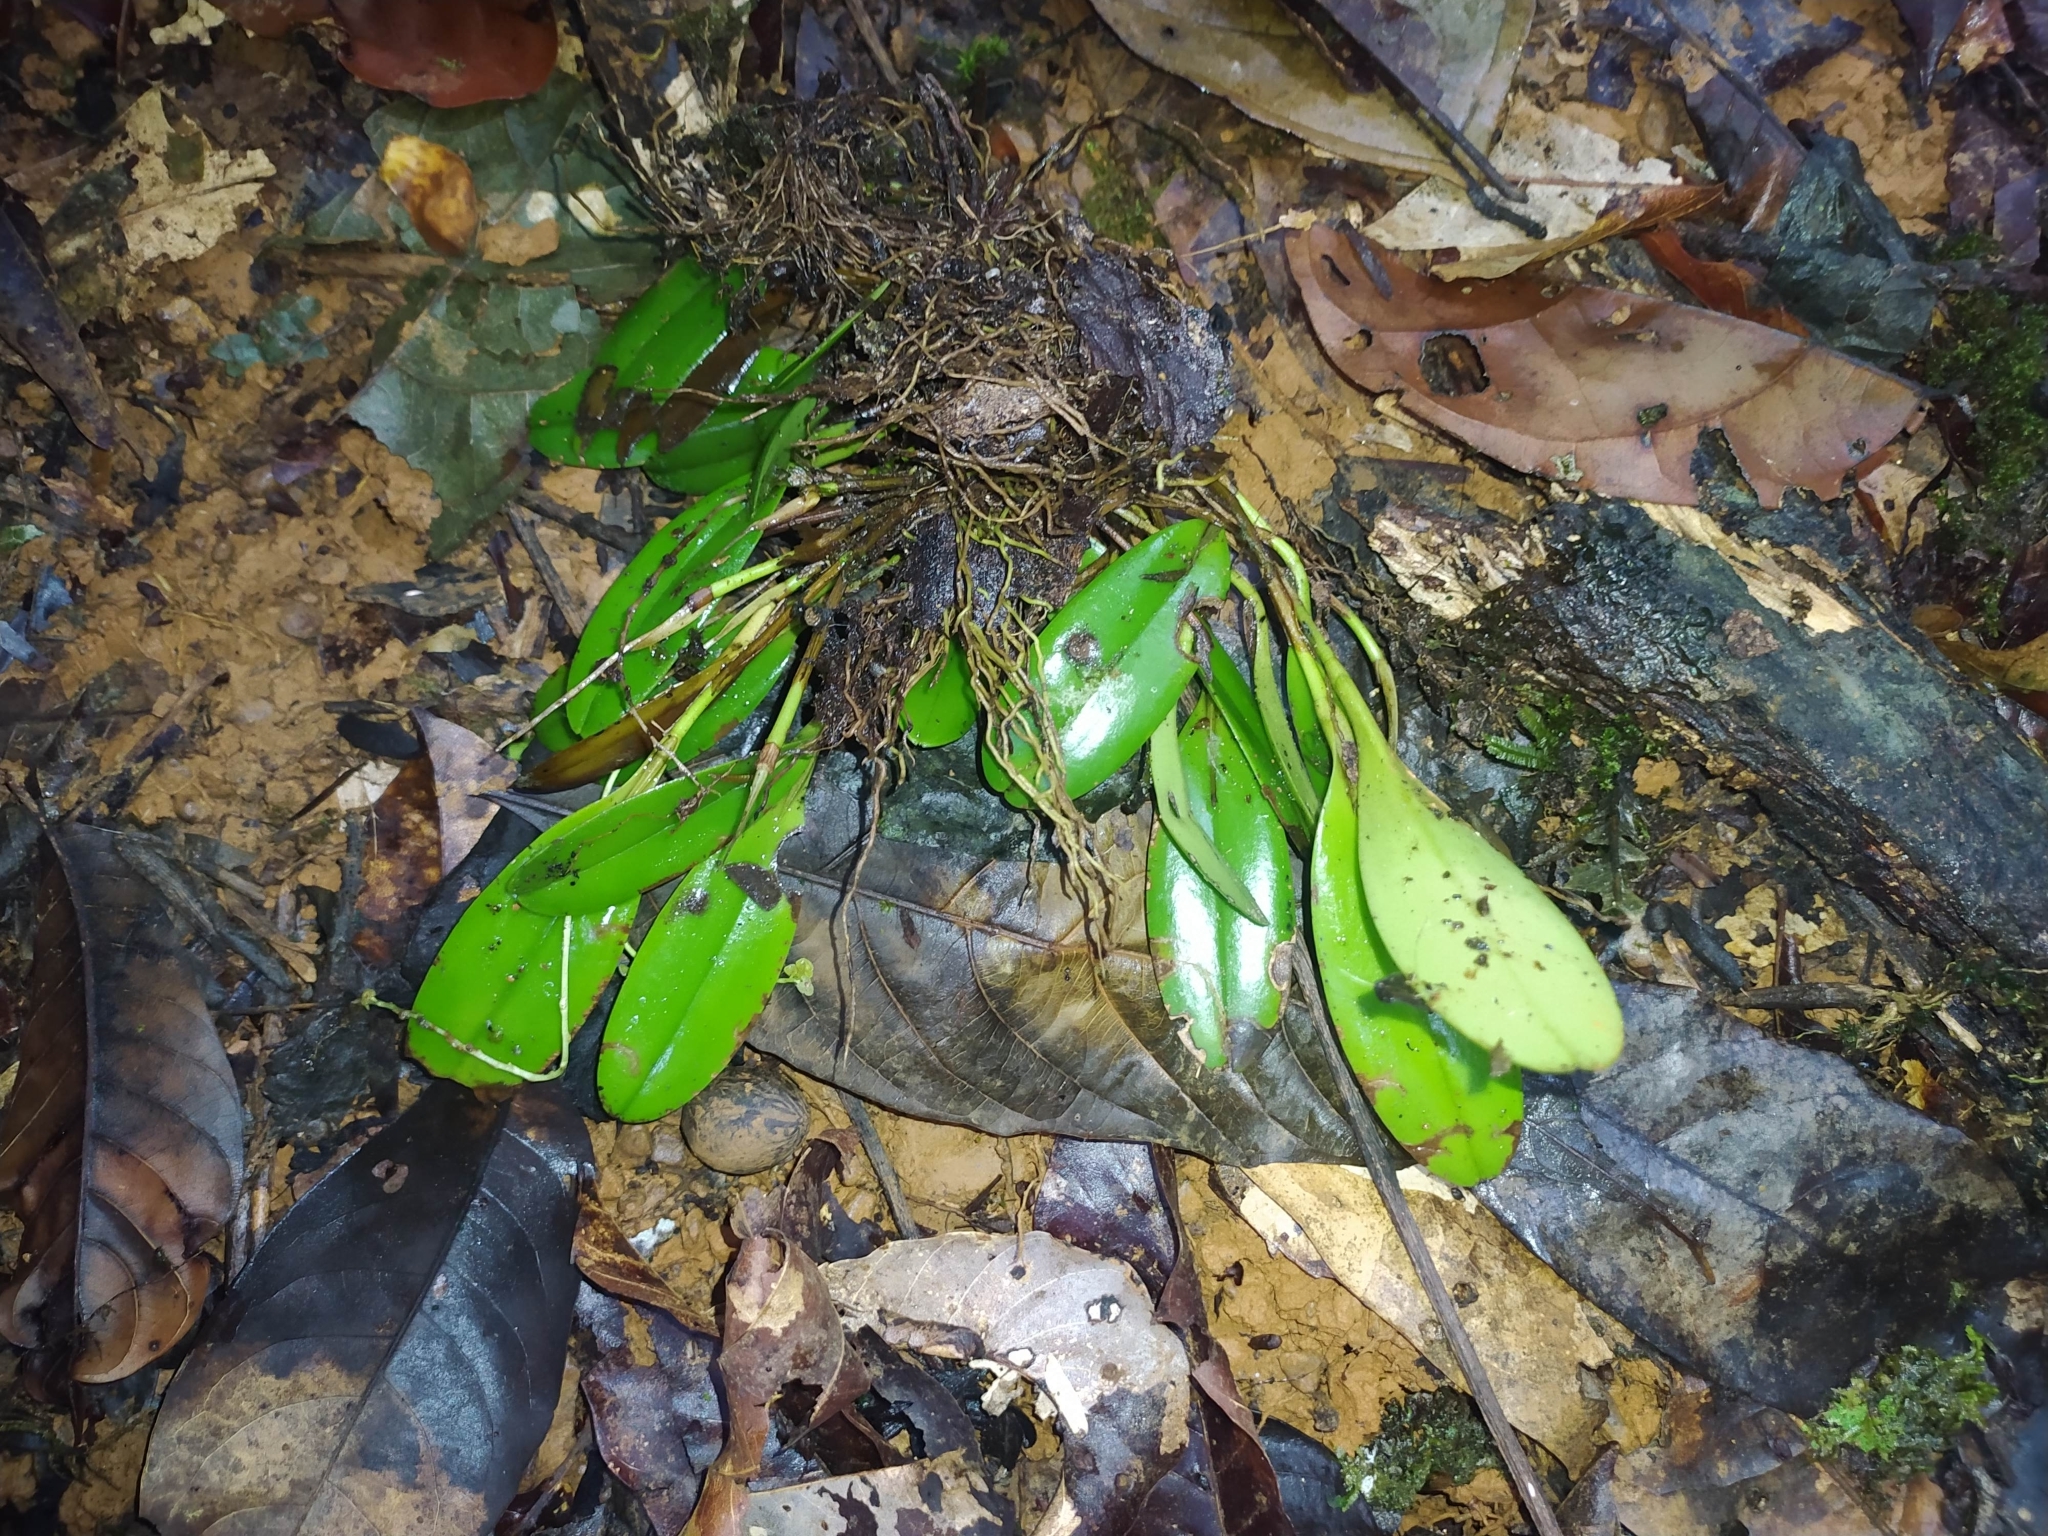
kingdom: Plantae
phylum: Tracheophyta
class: Liliopsida
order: Asparagales
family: Orchidaceae
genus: Stelis
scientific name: Stelis
